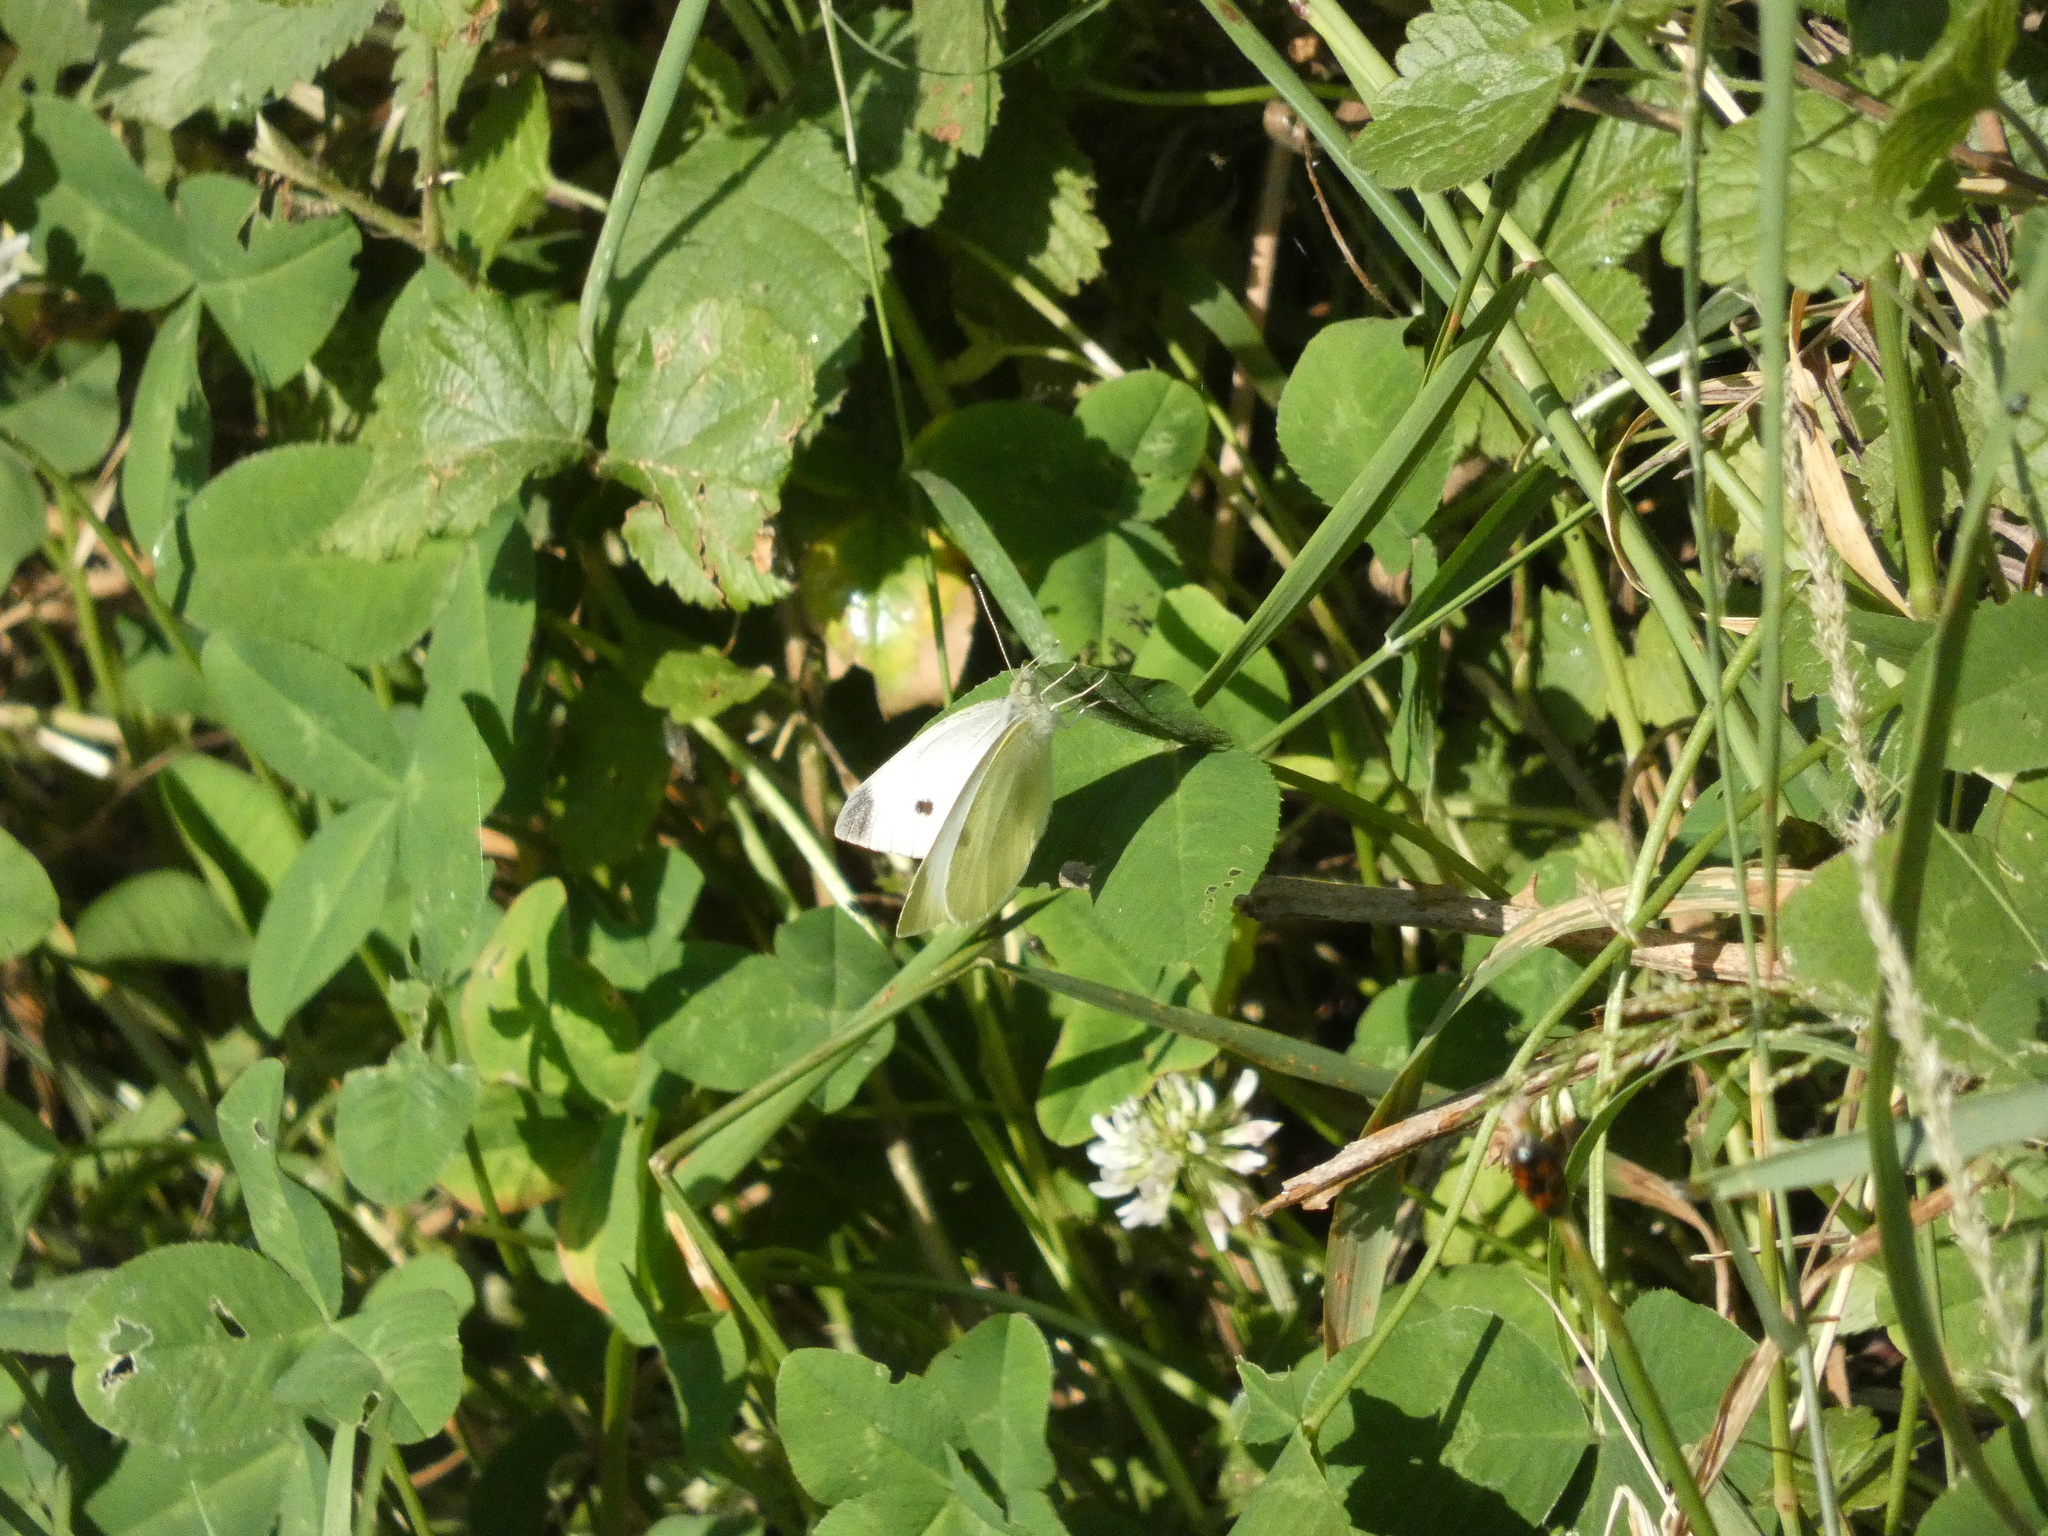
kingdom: Animalia
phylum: Arthropoda
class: Insecta
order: Lepidoptera
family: Pieridae
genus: Pieris
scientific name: Pieris rapae
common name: Small white
